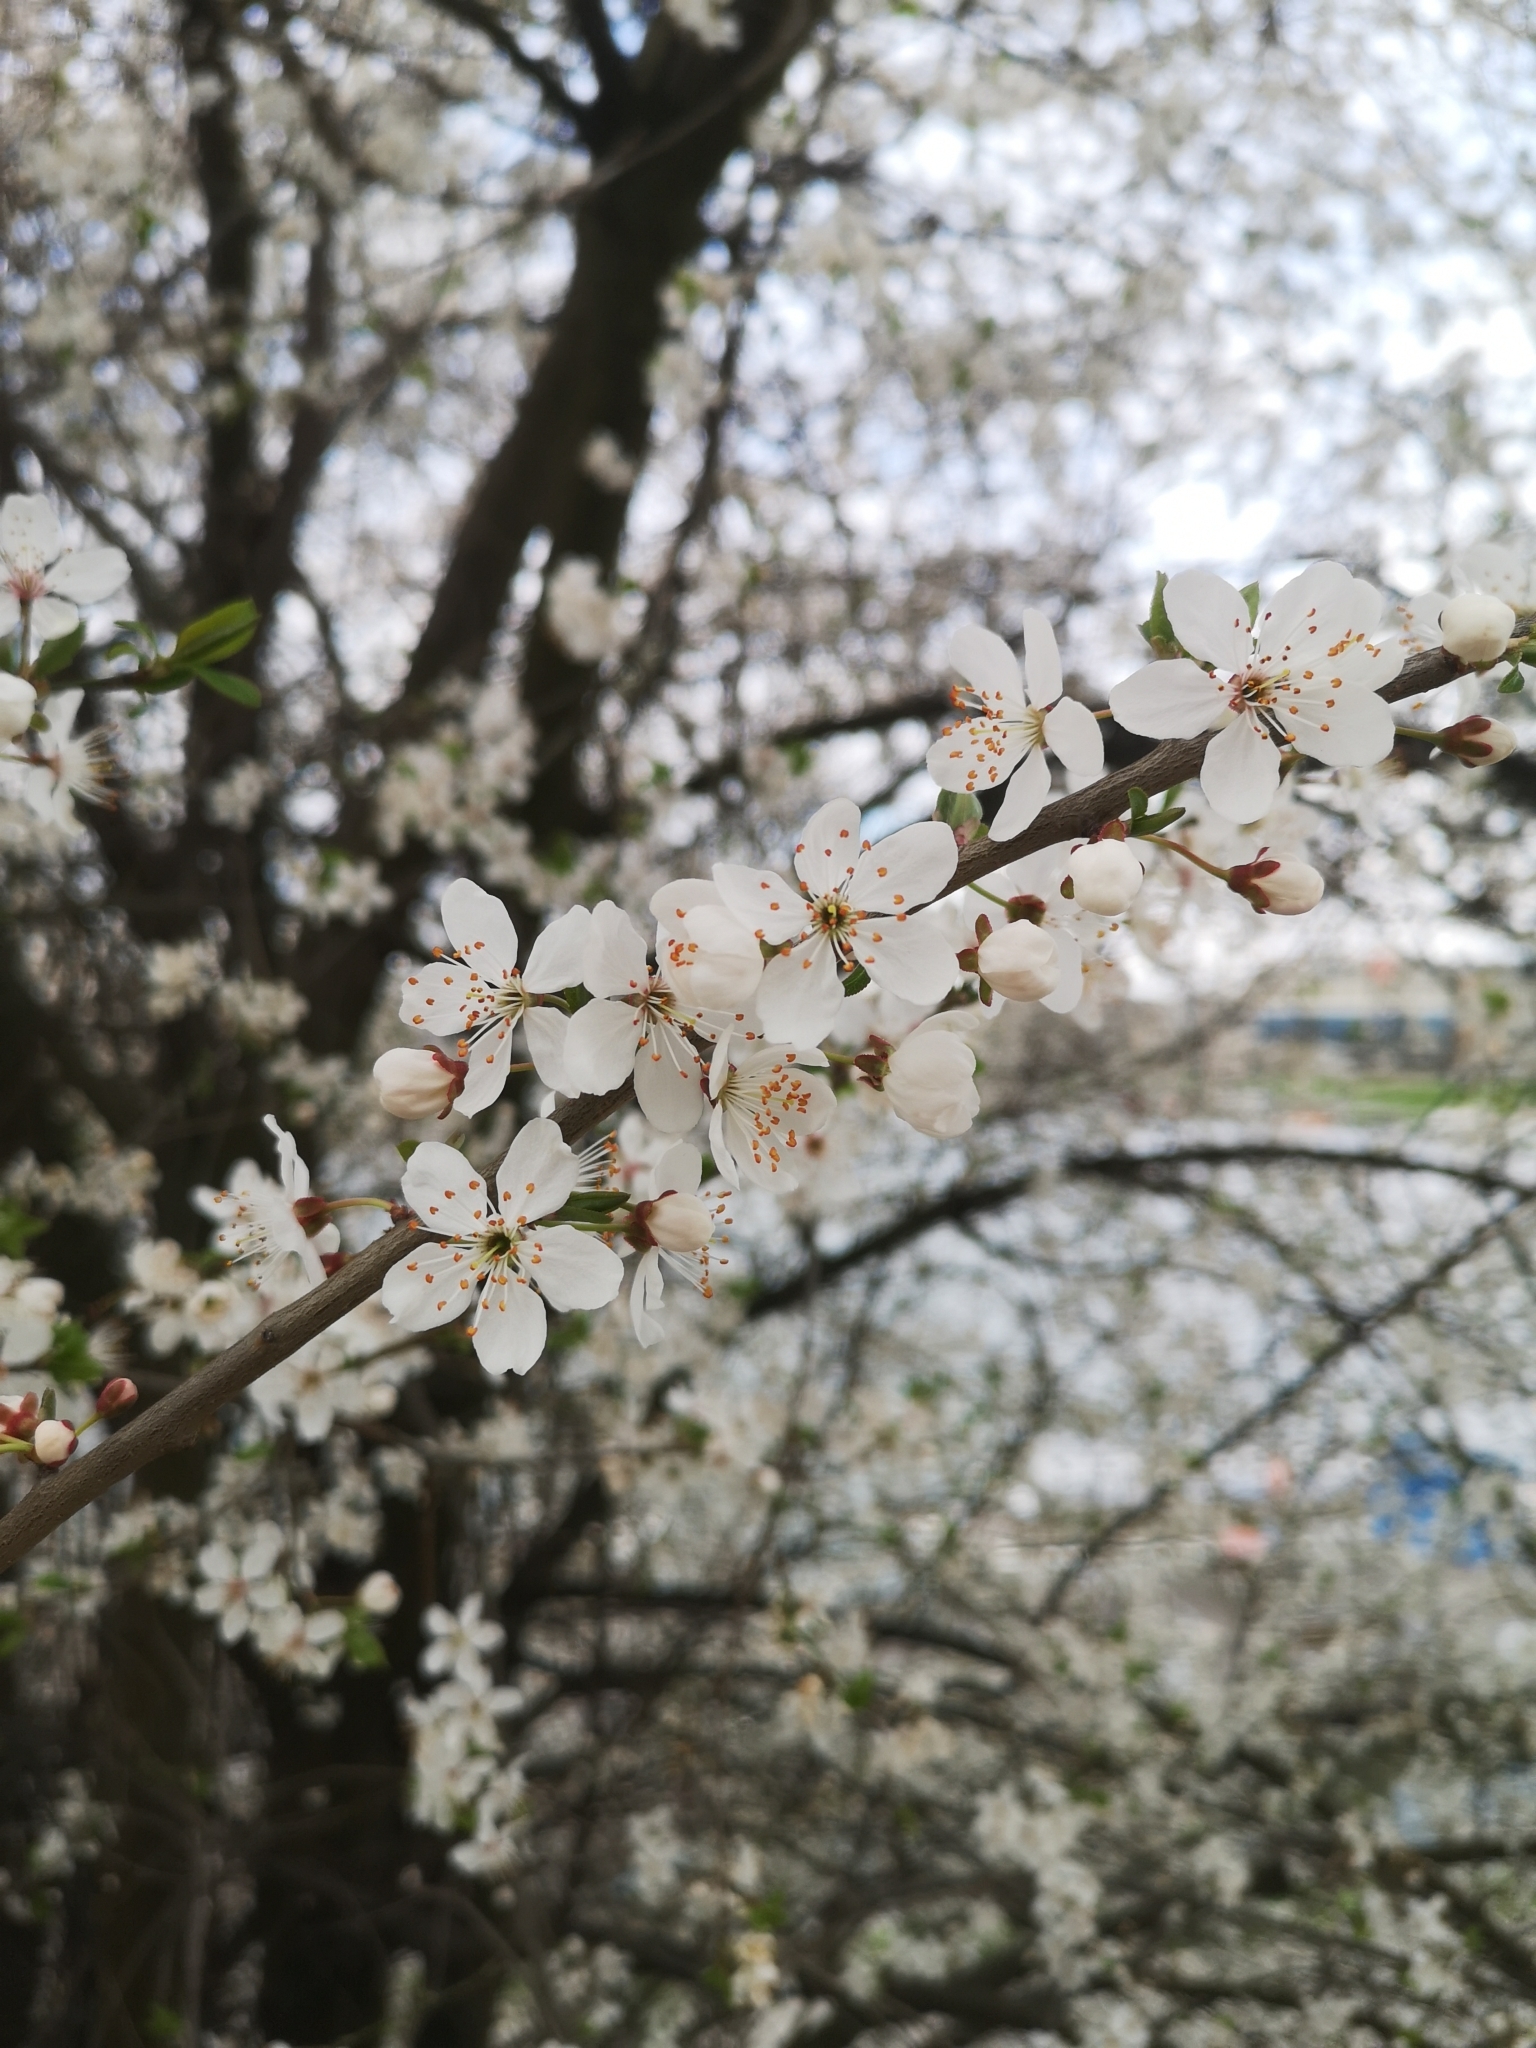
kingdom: Plantae
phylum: Tracheophyta
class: Magnoliopsida
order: Rosales
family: Rosaceae
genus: Prunus
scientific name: Prunus cerasifera
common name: Cherry plum
